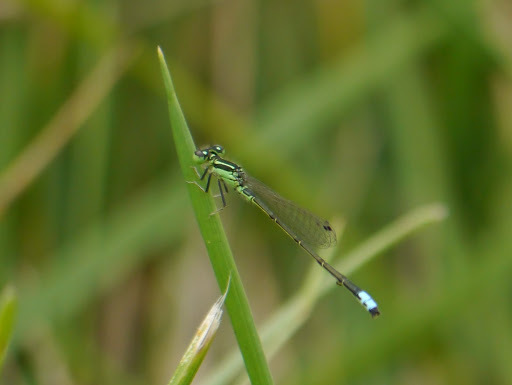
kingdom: Animalia
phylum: Arthropoda
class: Insecta
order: Odonata
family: Coenagrionidae
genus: Ischnura
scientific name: Ischnura verticalis
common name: Eastern forktail
